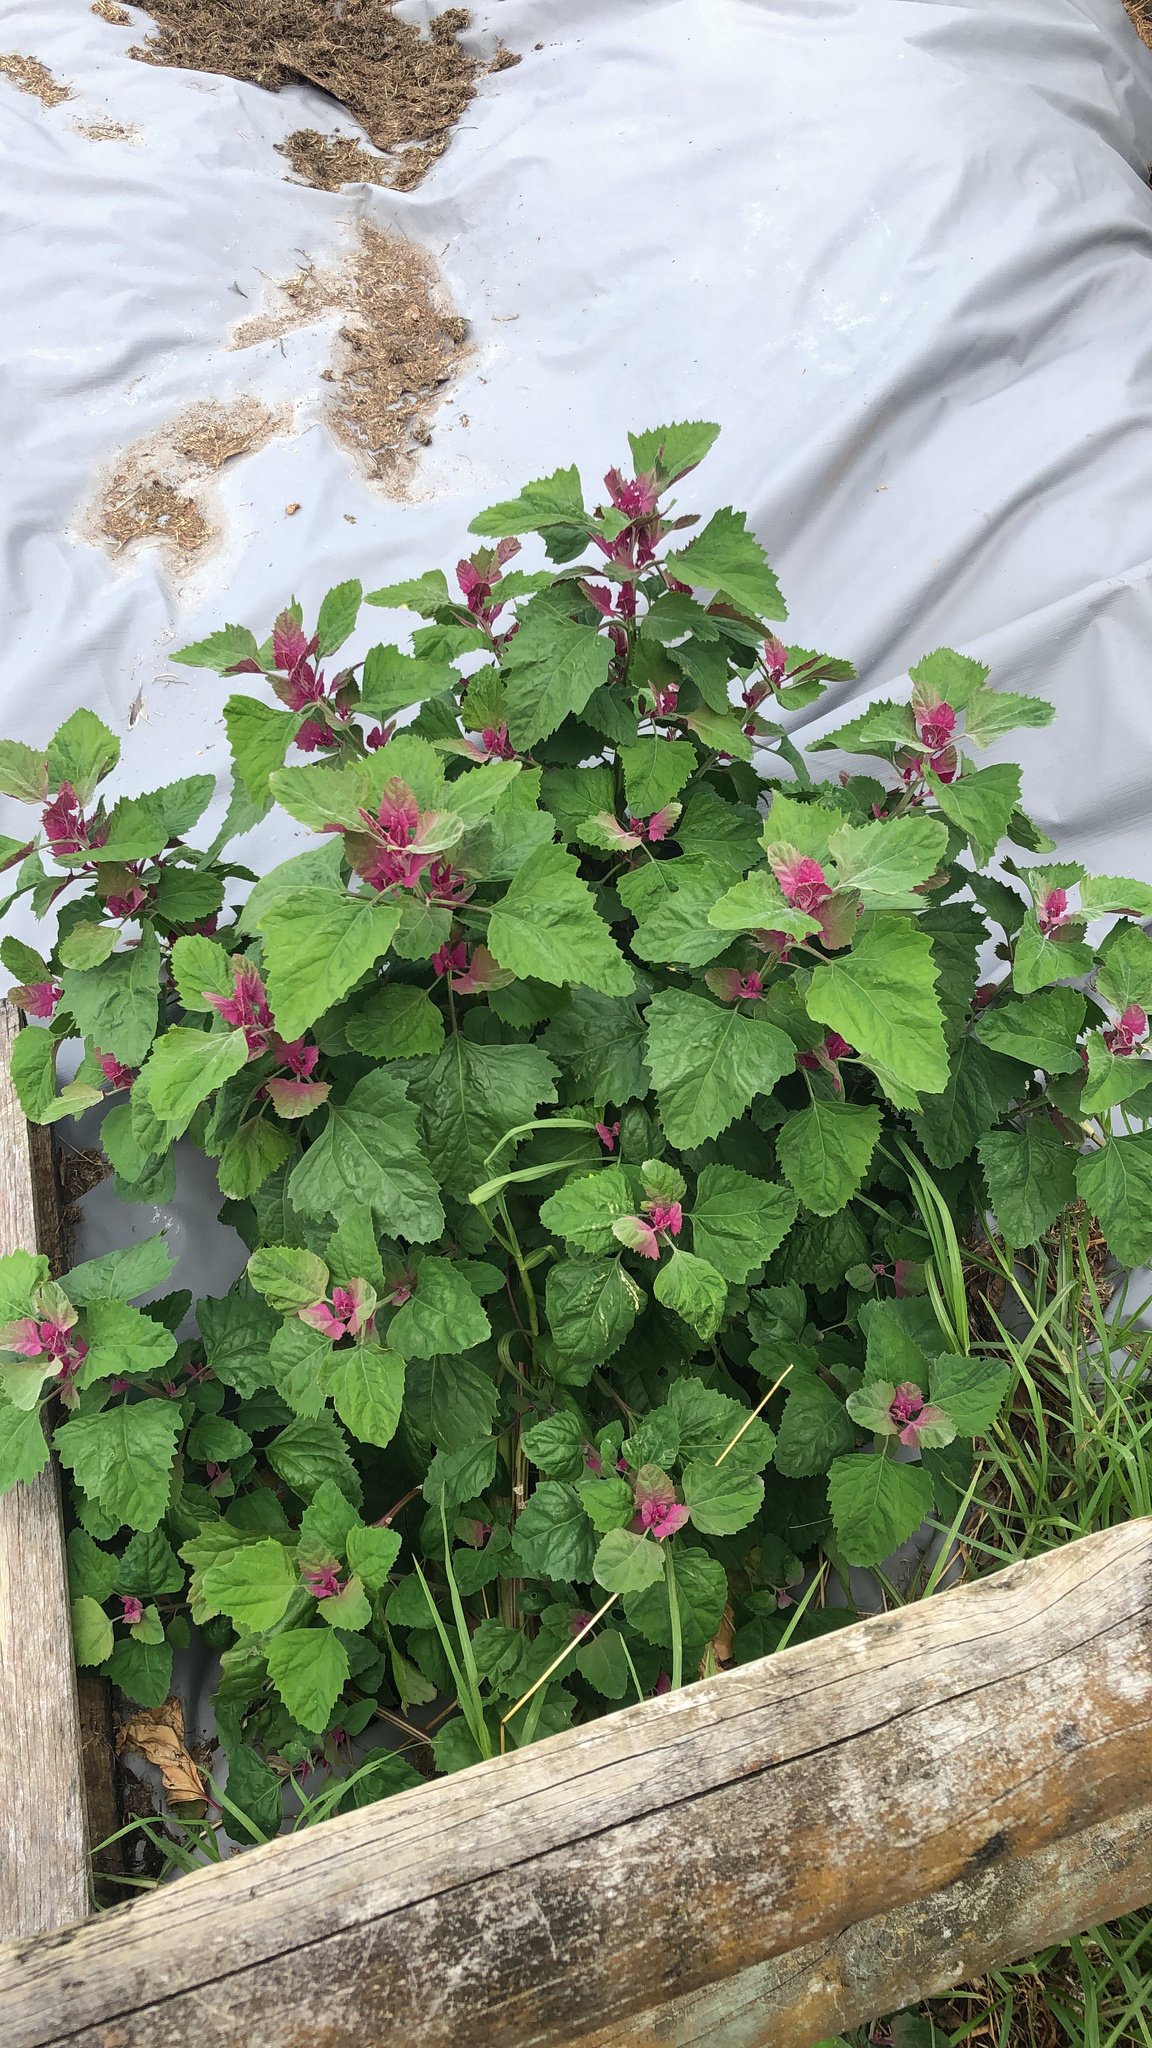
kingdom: Plantae
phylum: Tracheophyta
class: Magnoliopsida
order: Caryophyllales
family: Amaranthaceae
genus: Chenopodium
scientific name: Chenopodium giganteum
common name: Magentaspreen
